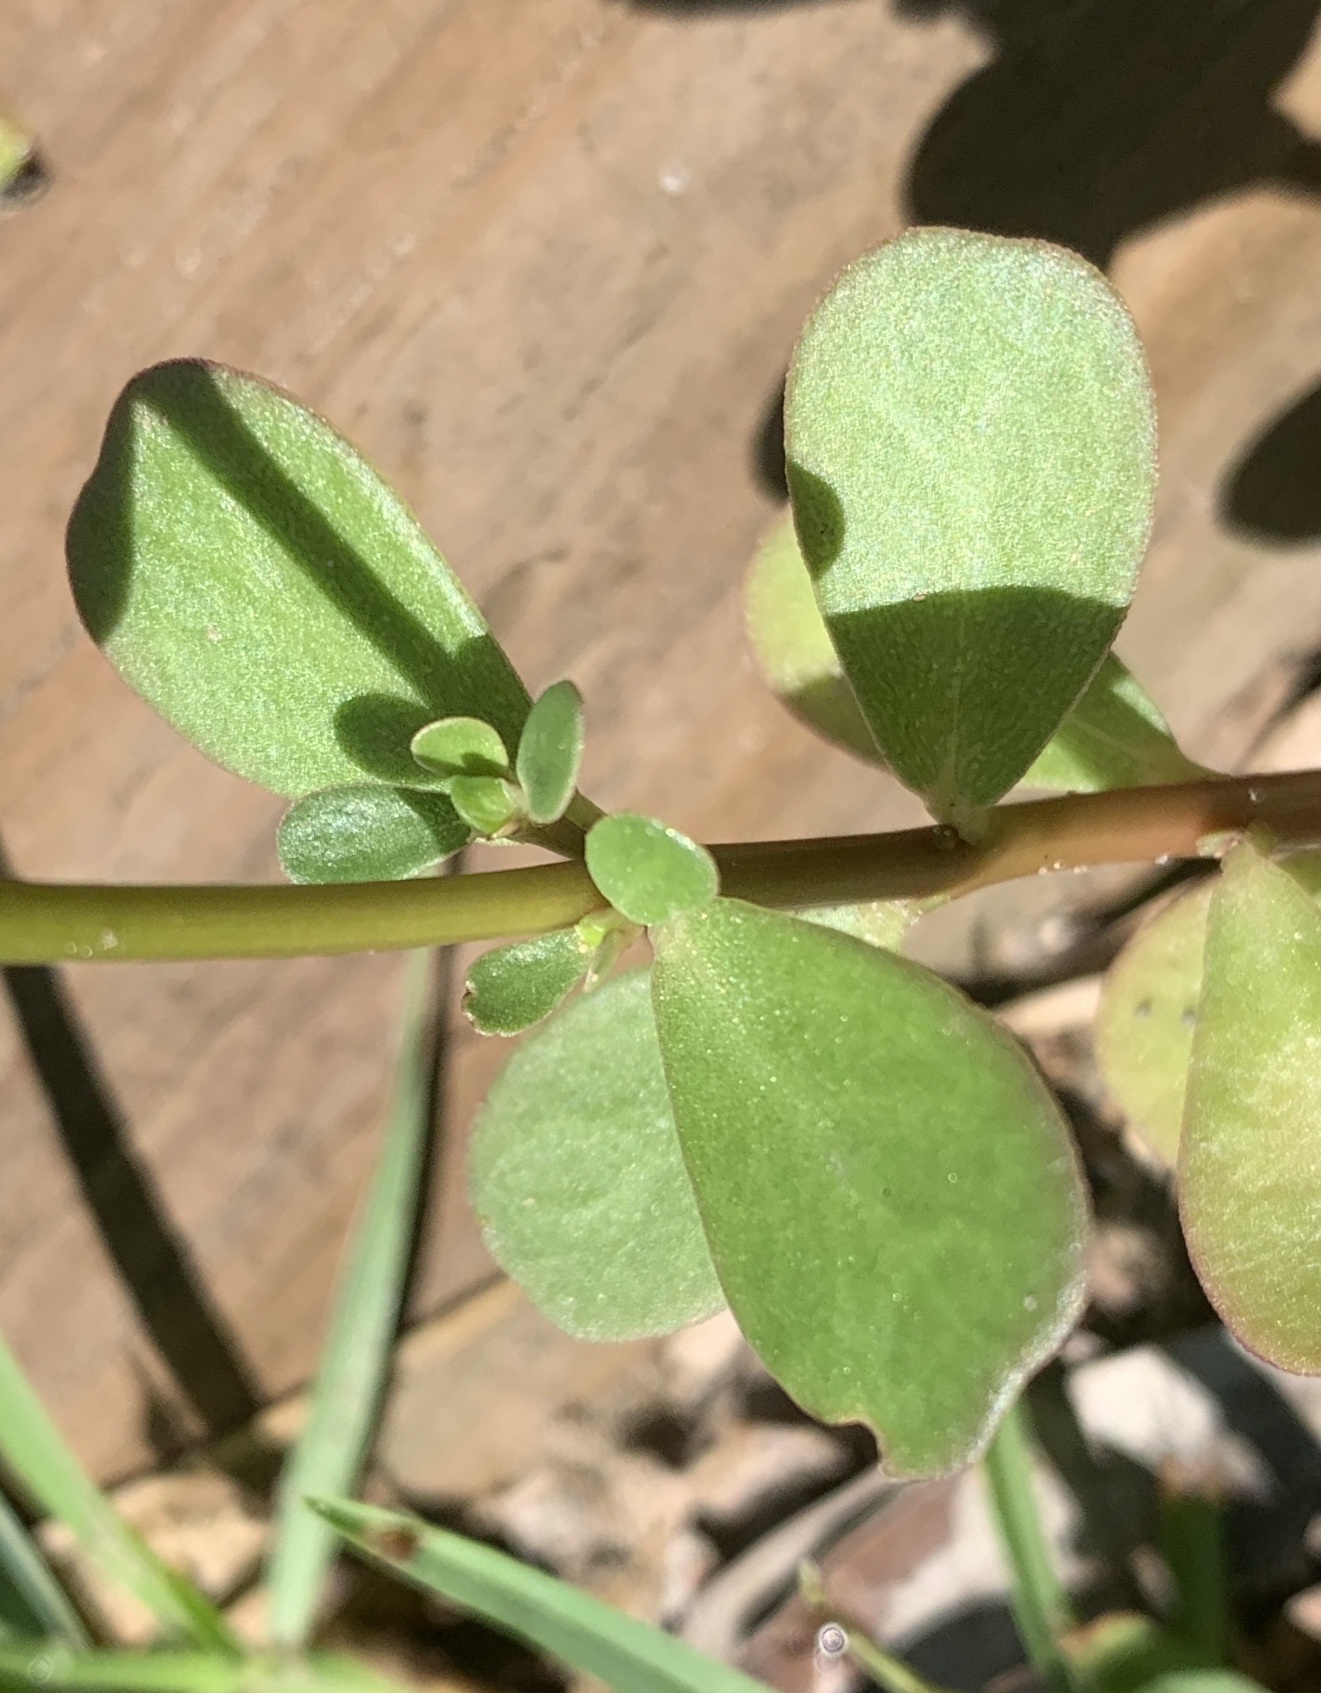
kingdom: Plantae
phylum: Tracheophyta
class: Magnoliopsida
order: Caryophyllales
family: Portulacaceae
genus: Portulaca
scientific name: Portulaca oleracea
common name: Common purslane
